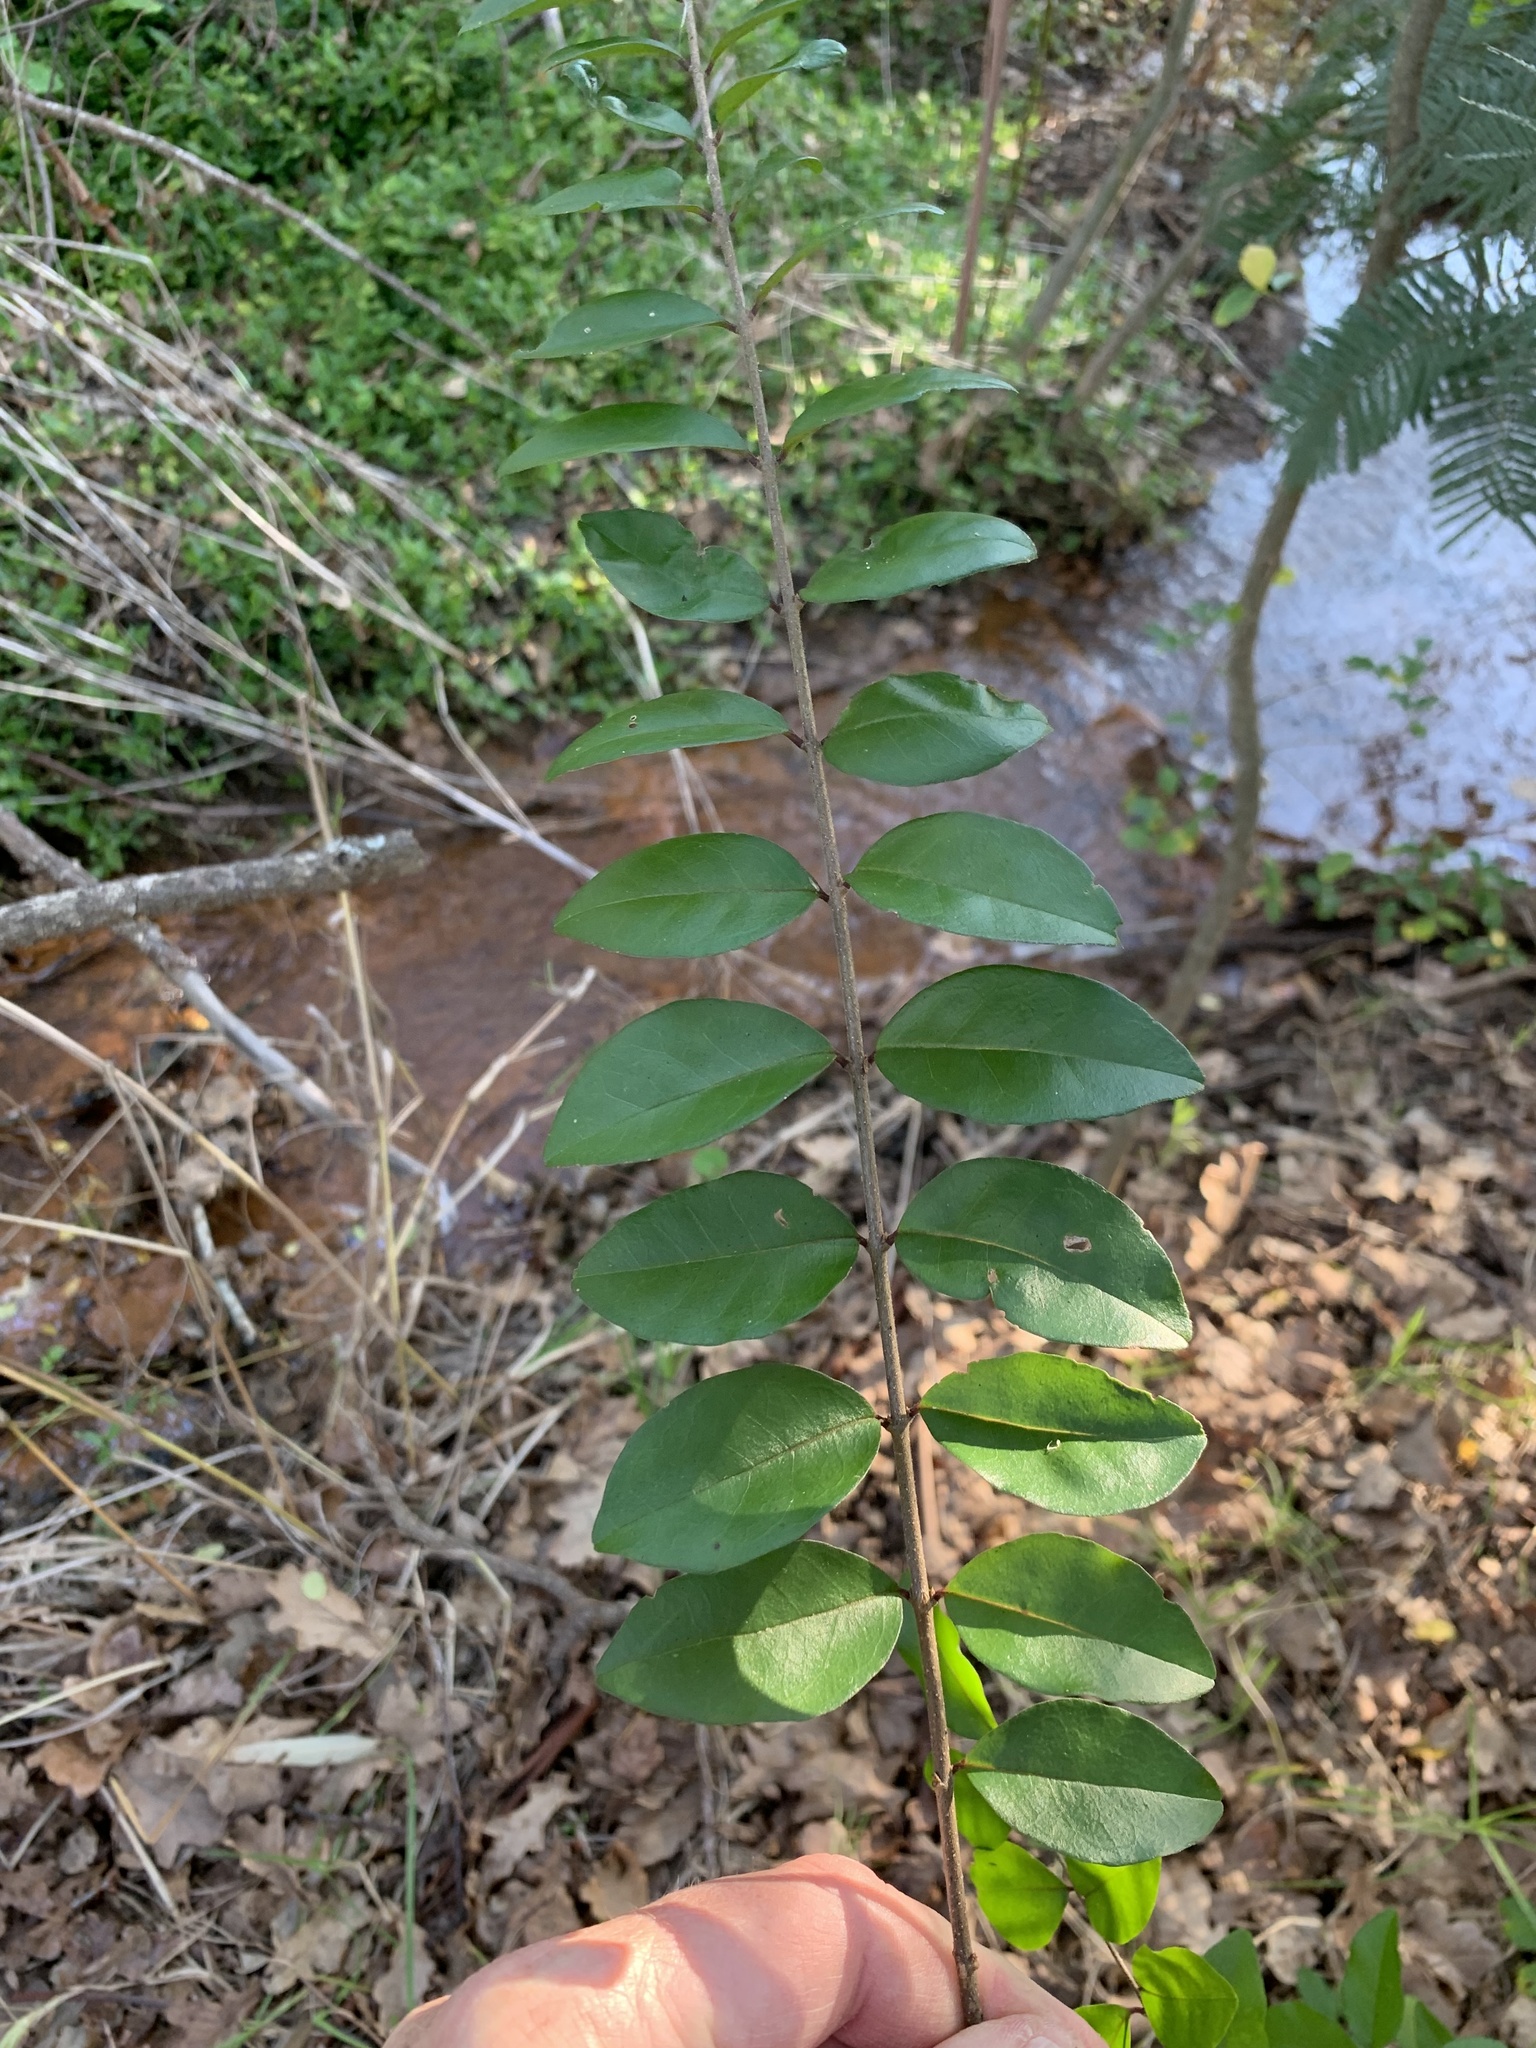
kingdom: Plantae
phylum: Tracheophyta
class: Magnoliopsida
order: Lamiales
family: Oleaceae
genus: Ligustrum
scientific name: Ligustrum sinense
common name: Chinese privet
